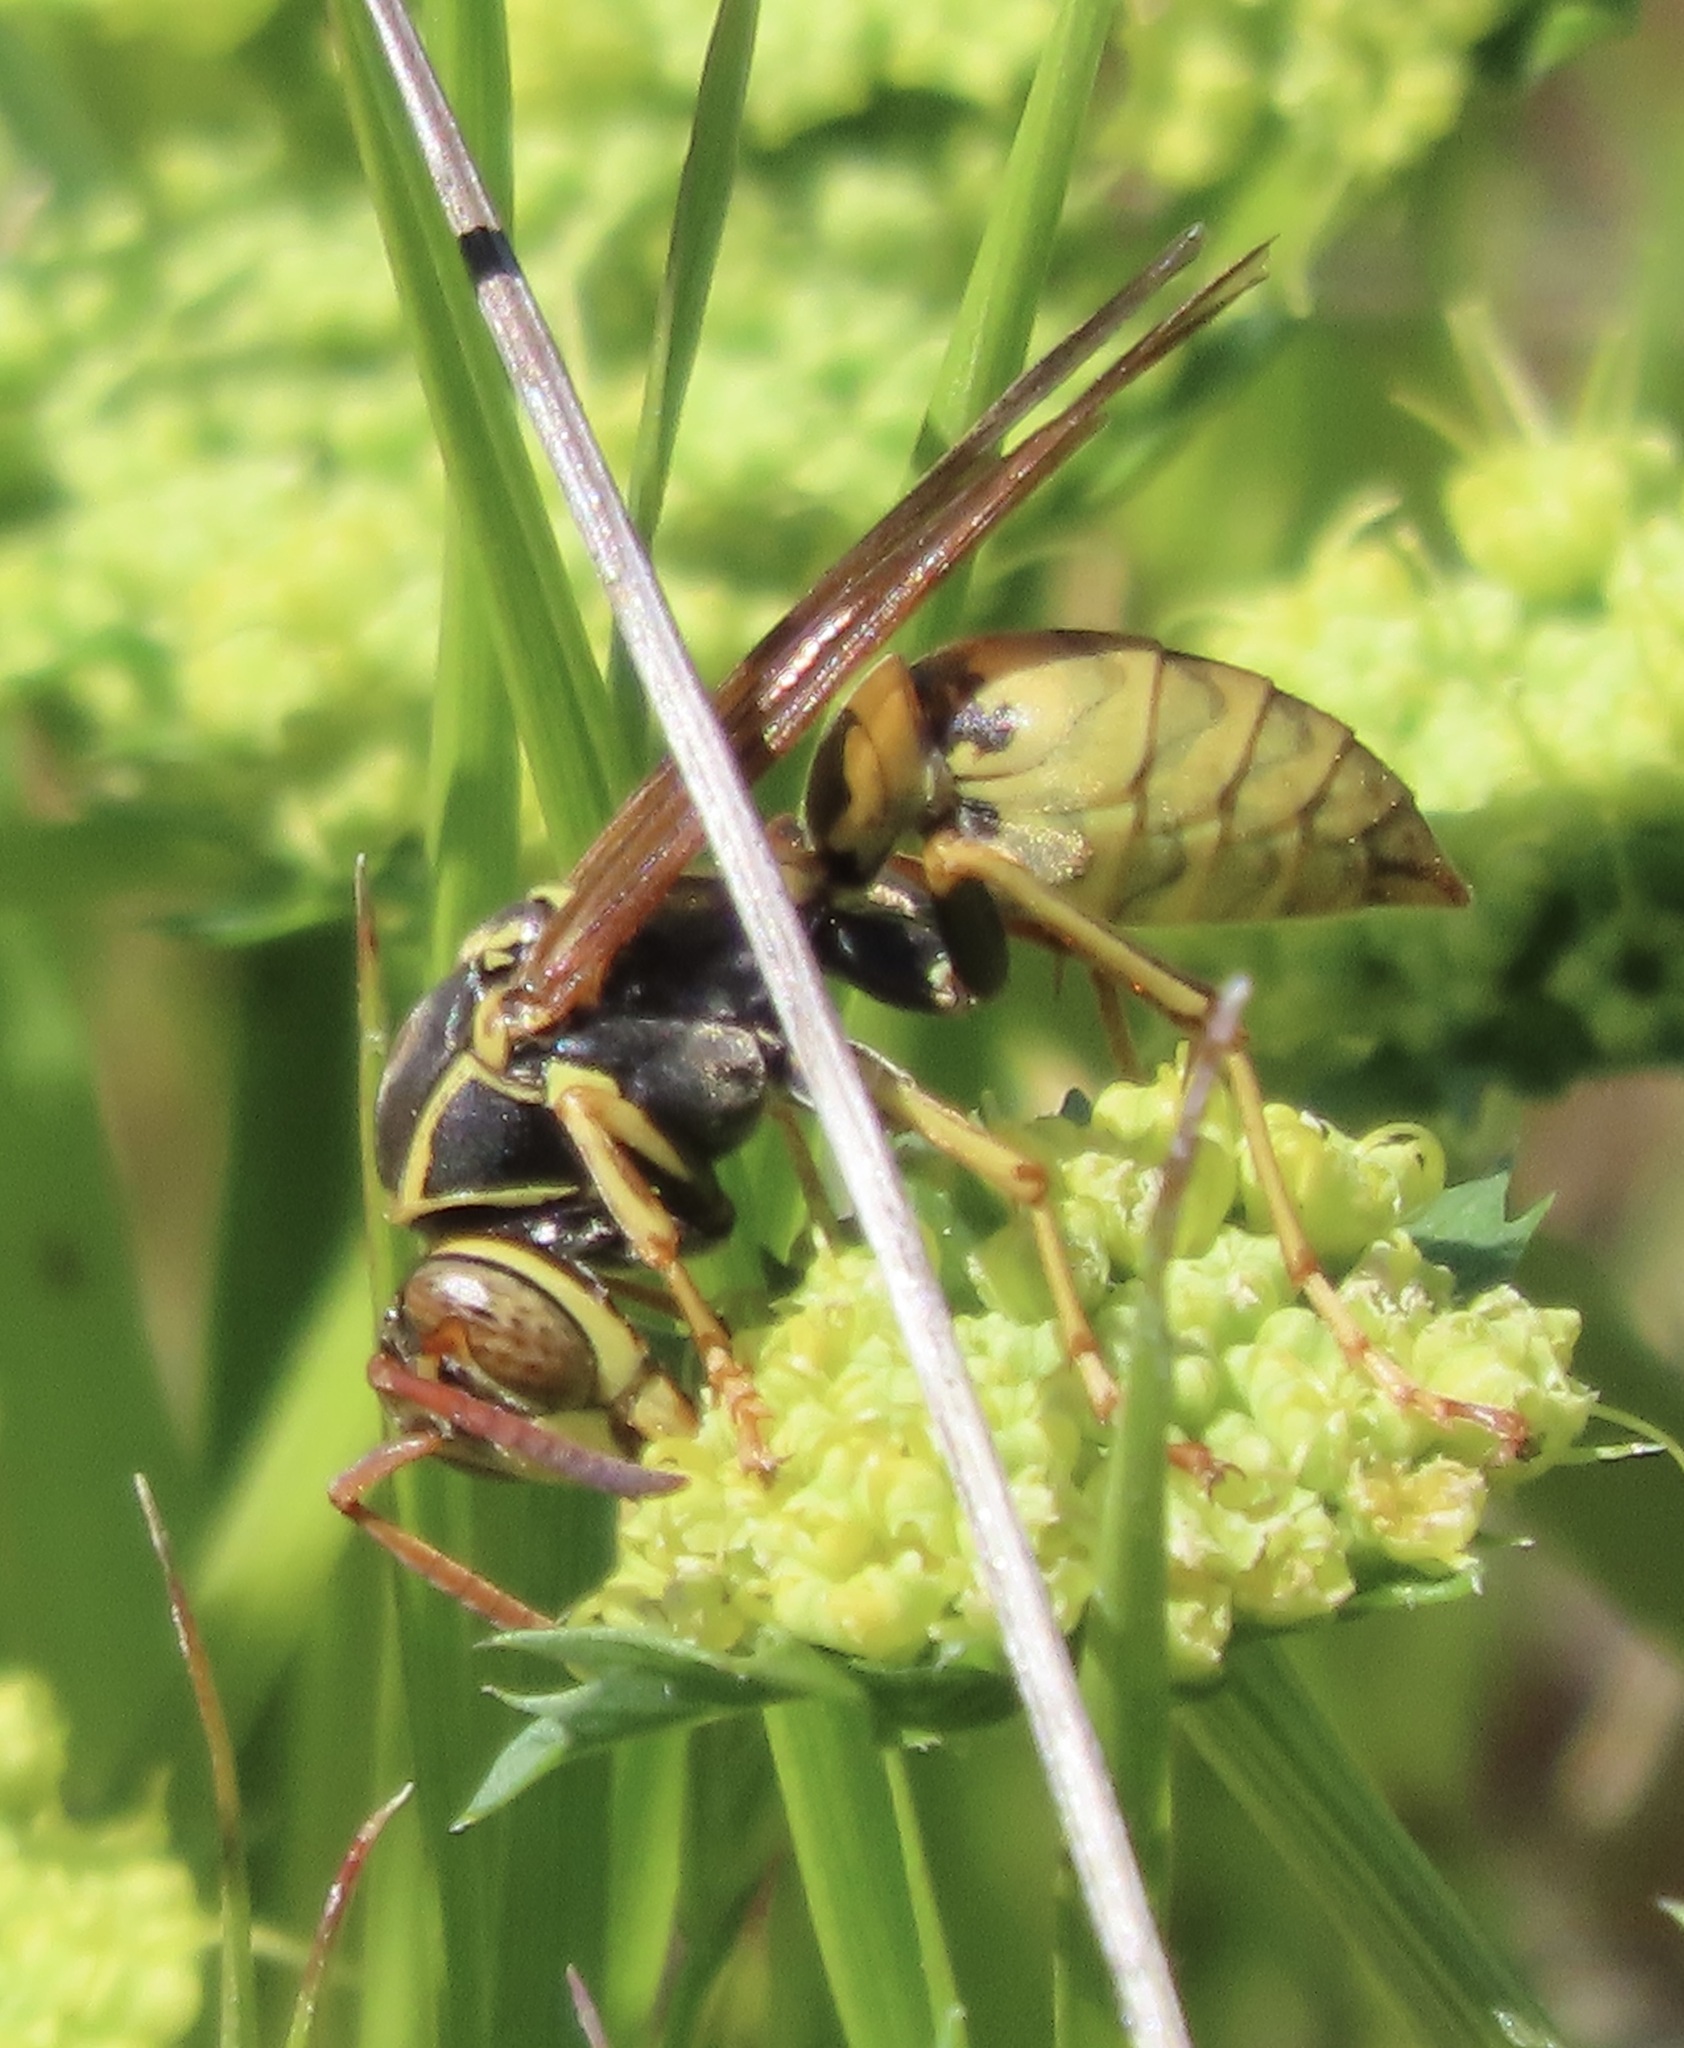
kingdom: Animalia
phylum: Arthropoda
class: Insecta
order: Hymenoptera
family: Eumenidae
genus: Polistes
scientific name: Polistes aurifer
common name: Paper wasp
